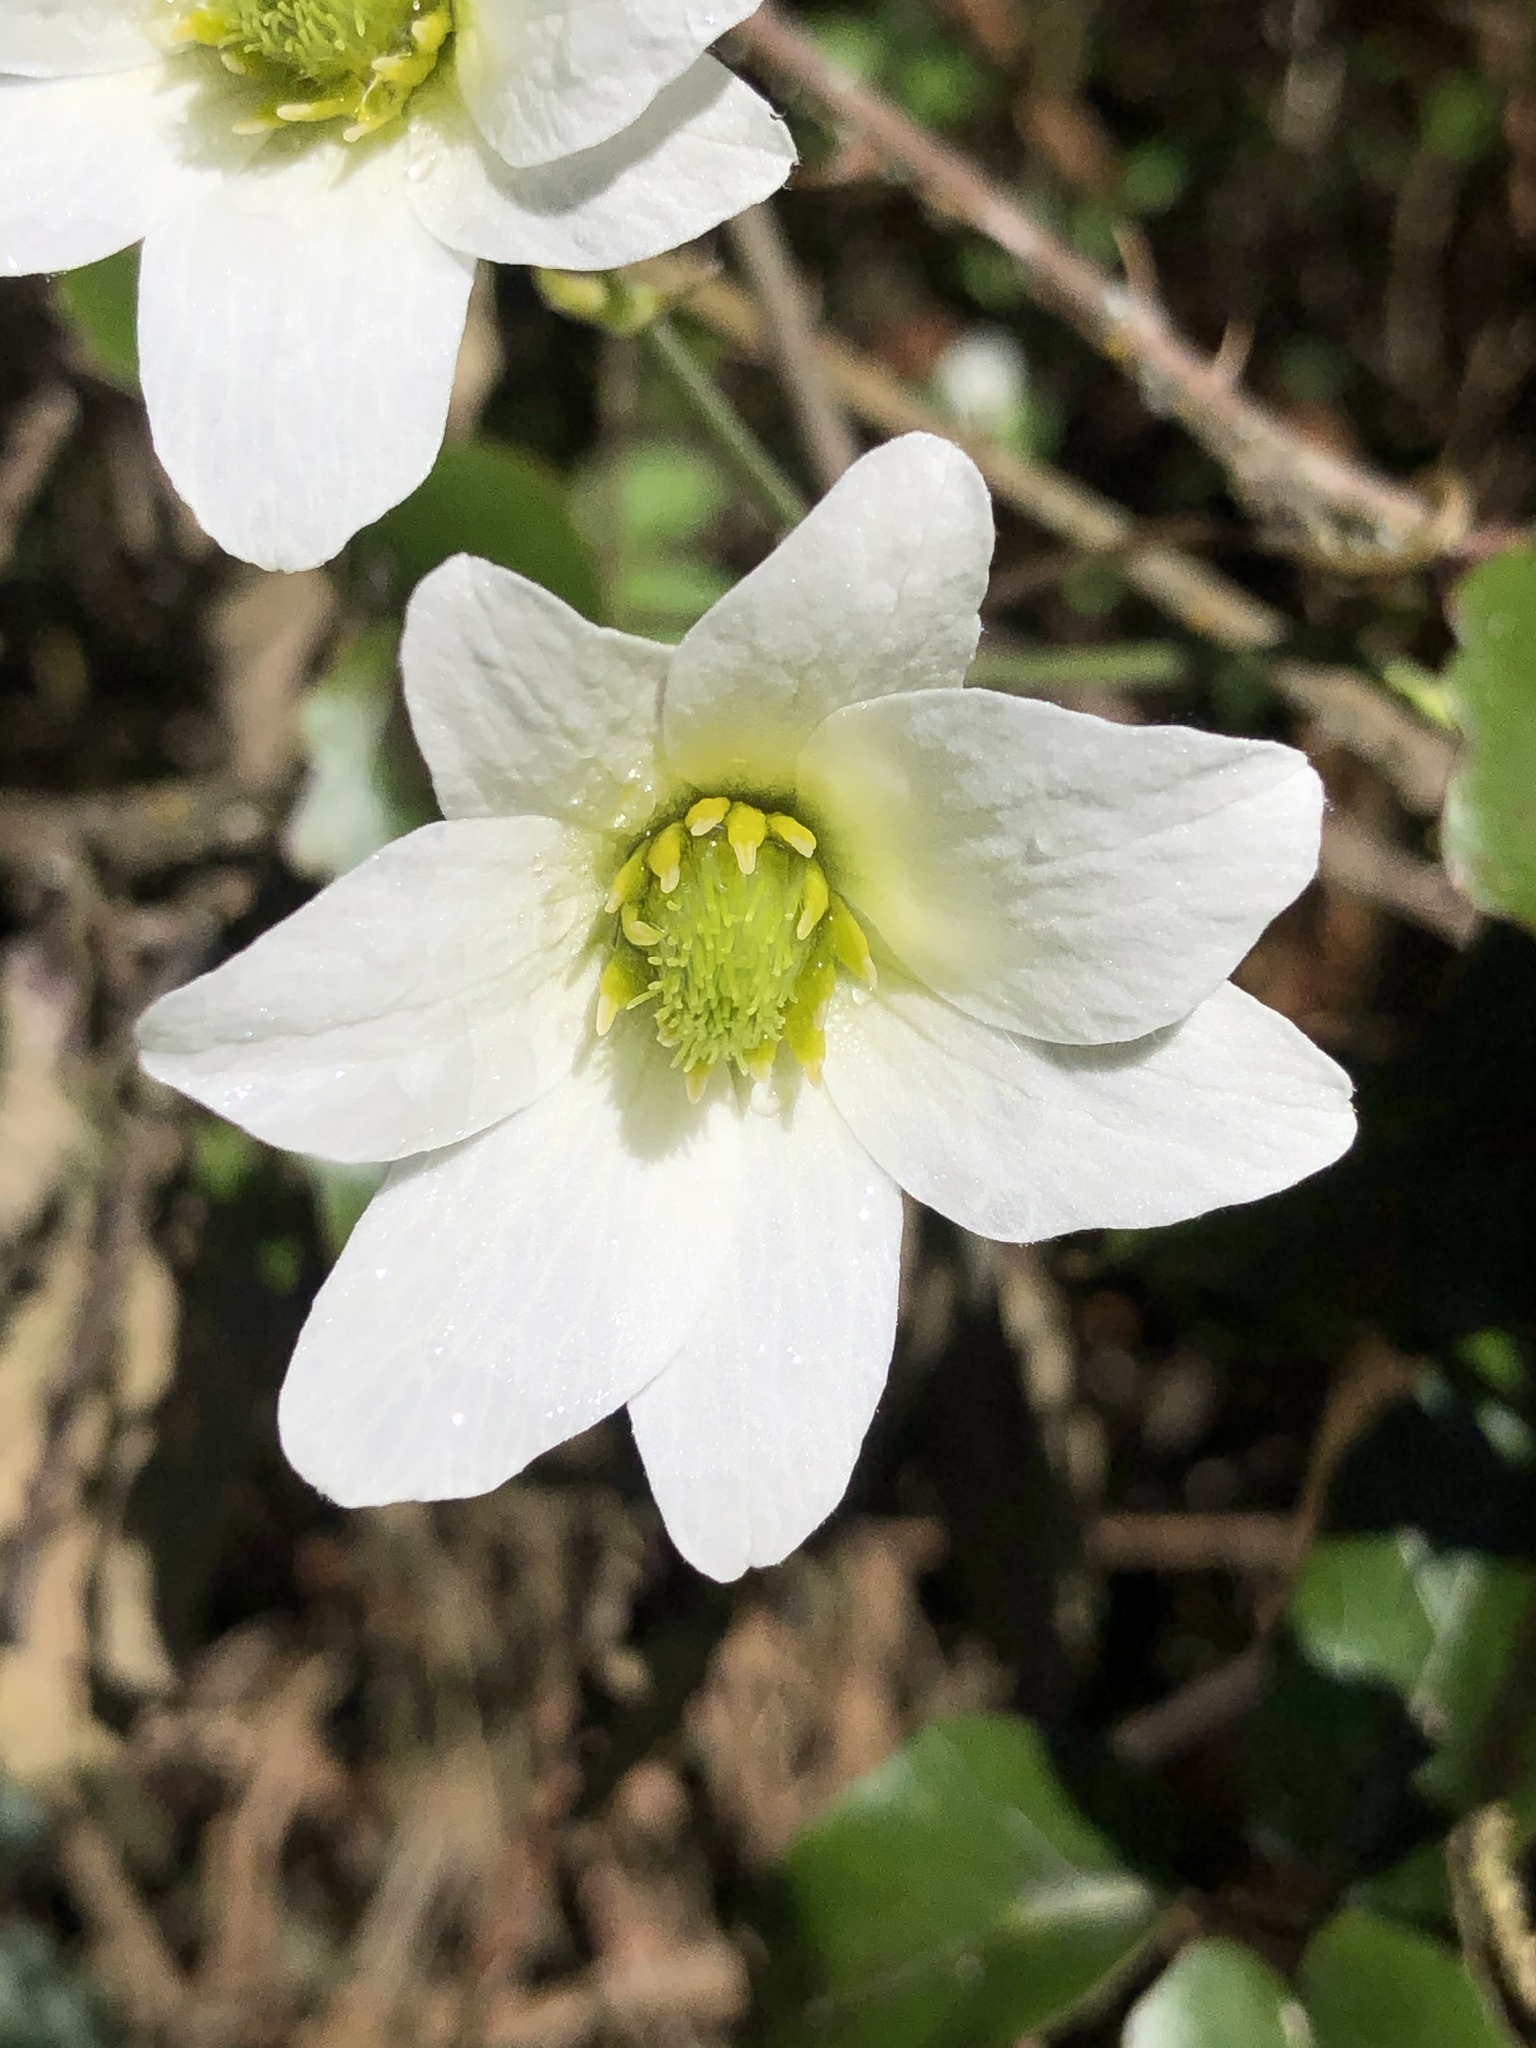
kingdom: Plantae
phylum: Tracheophyta
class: Magnoliopsida
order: Ranunculales
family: Ranunculaceae
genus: Clematis
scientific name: Clematis paniculata
